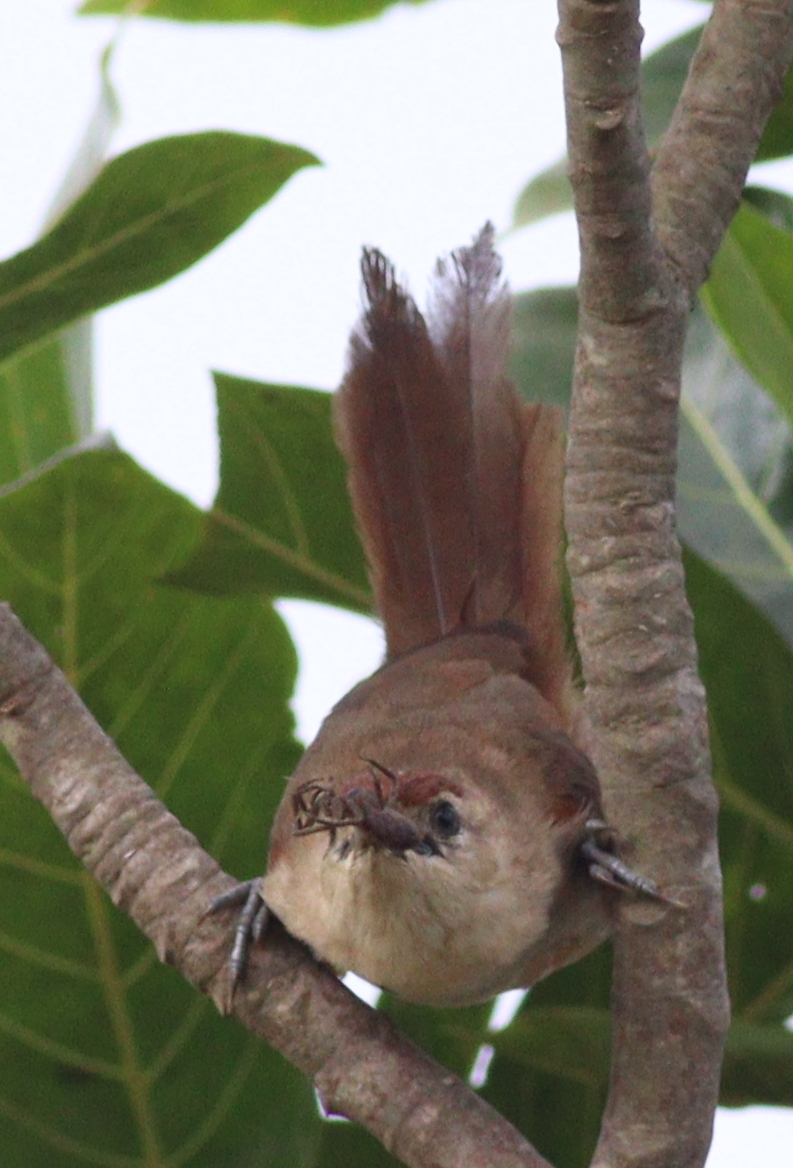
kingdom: Animalia
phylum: Chordata
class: Aves
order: Passeriformes
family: Furnariidae
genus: Phacellodomus
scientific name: Phacellodomus rufifrons
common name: Rufous-fronted thornbird
